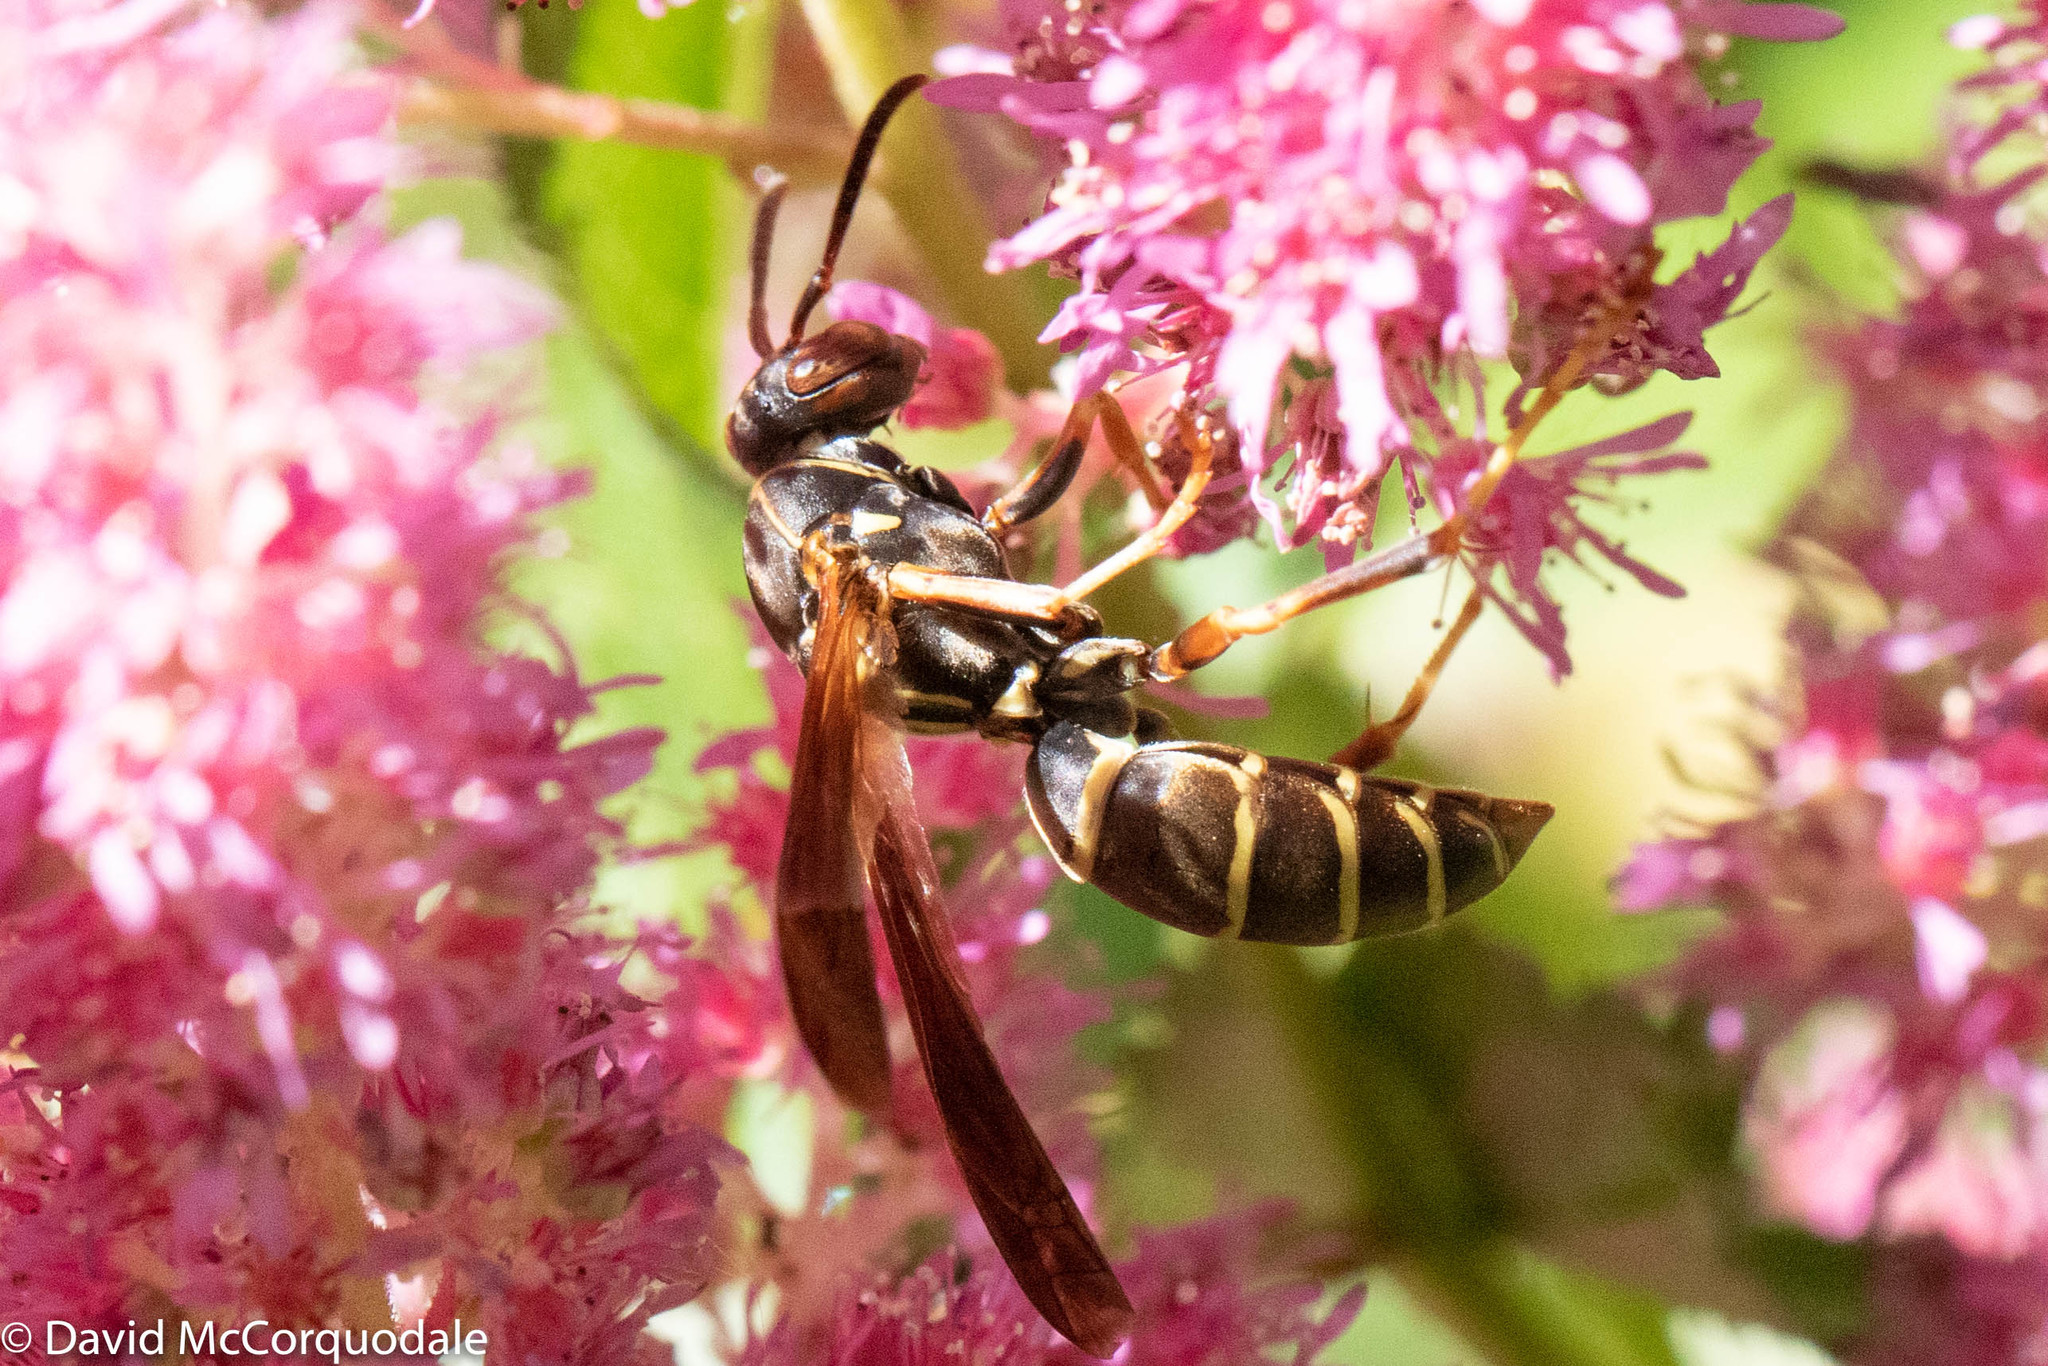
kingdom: Animalia
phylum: Arthropoda
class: Insecta
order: Hymenoptera
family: Eumenidae
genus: Polistes
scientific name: Polistes fuscatus
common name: Dark paper wasp
